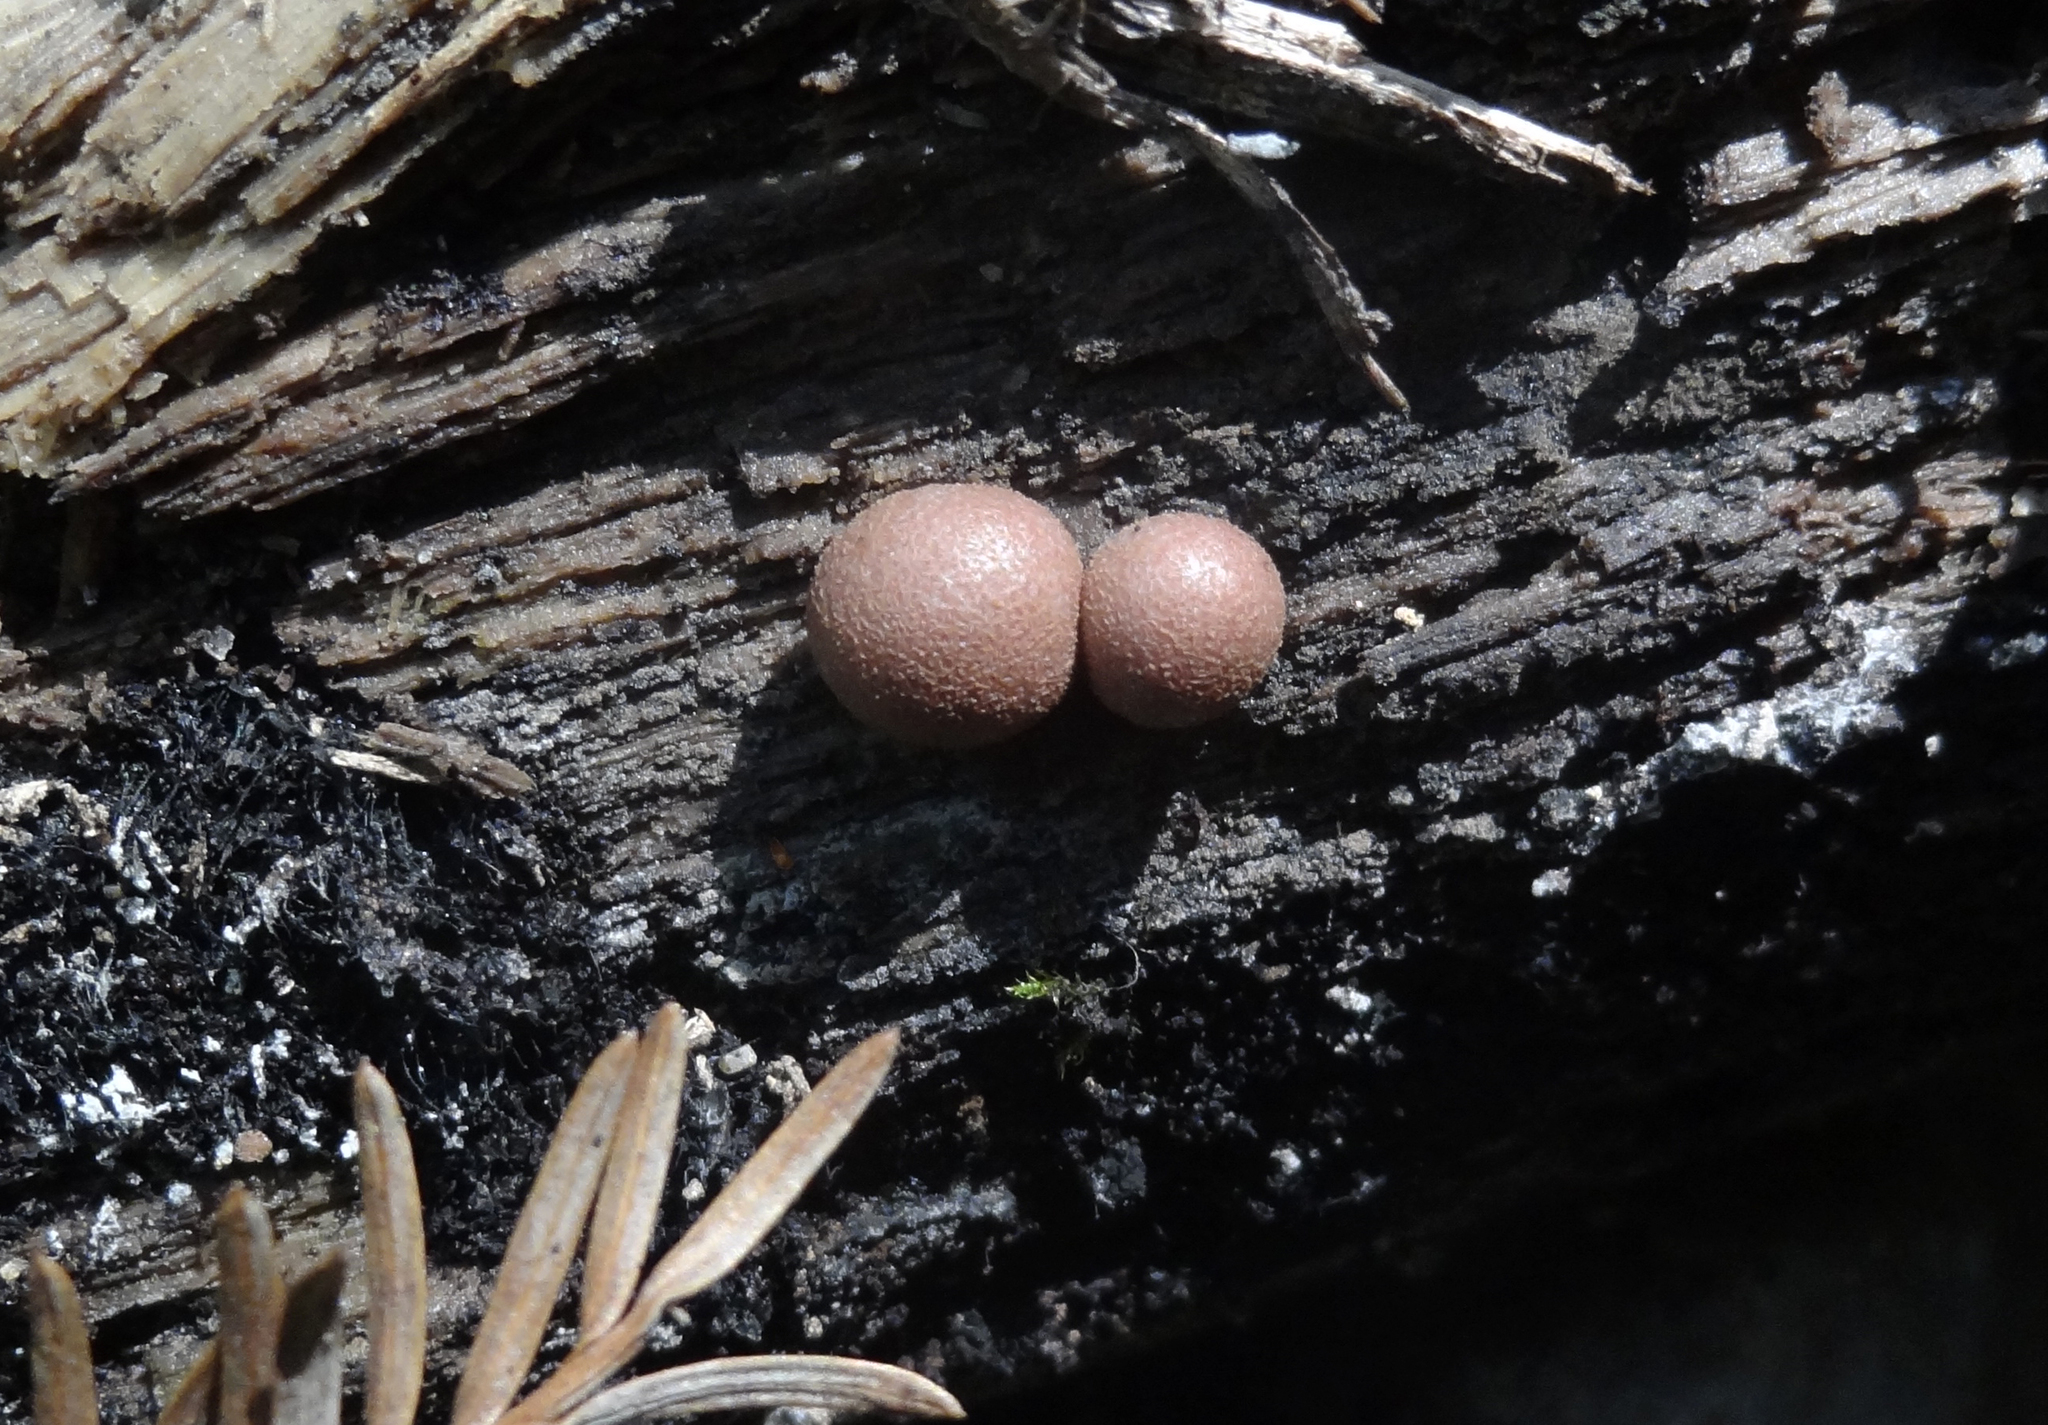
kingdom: Protozoa
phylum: Mycetozoa
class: Myxomycetes
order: Cribrariales
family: Tubiferaceae
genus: Lycogala
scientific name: Lycogala epidendrum
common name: Wolf's milk
